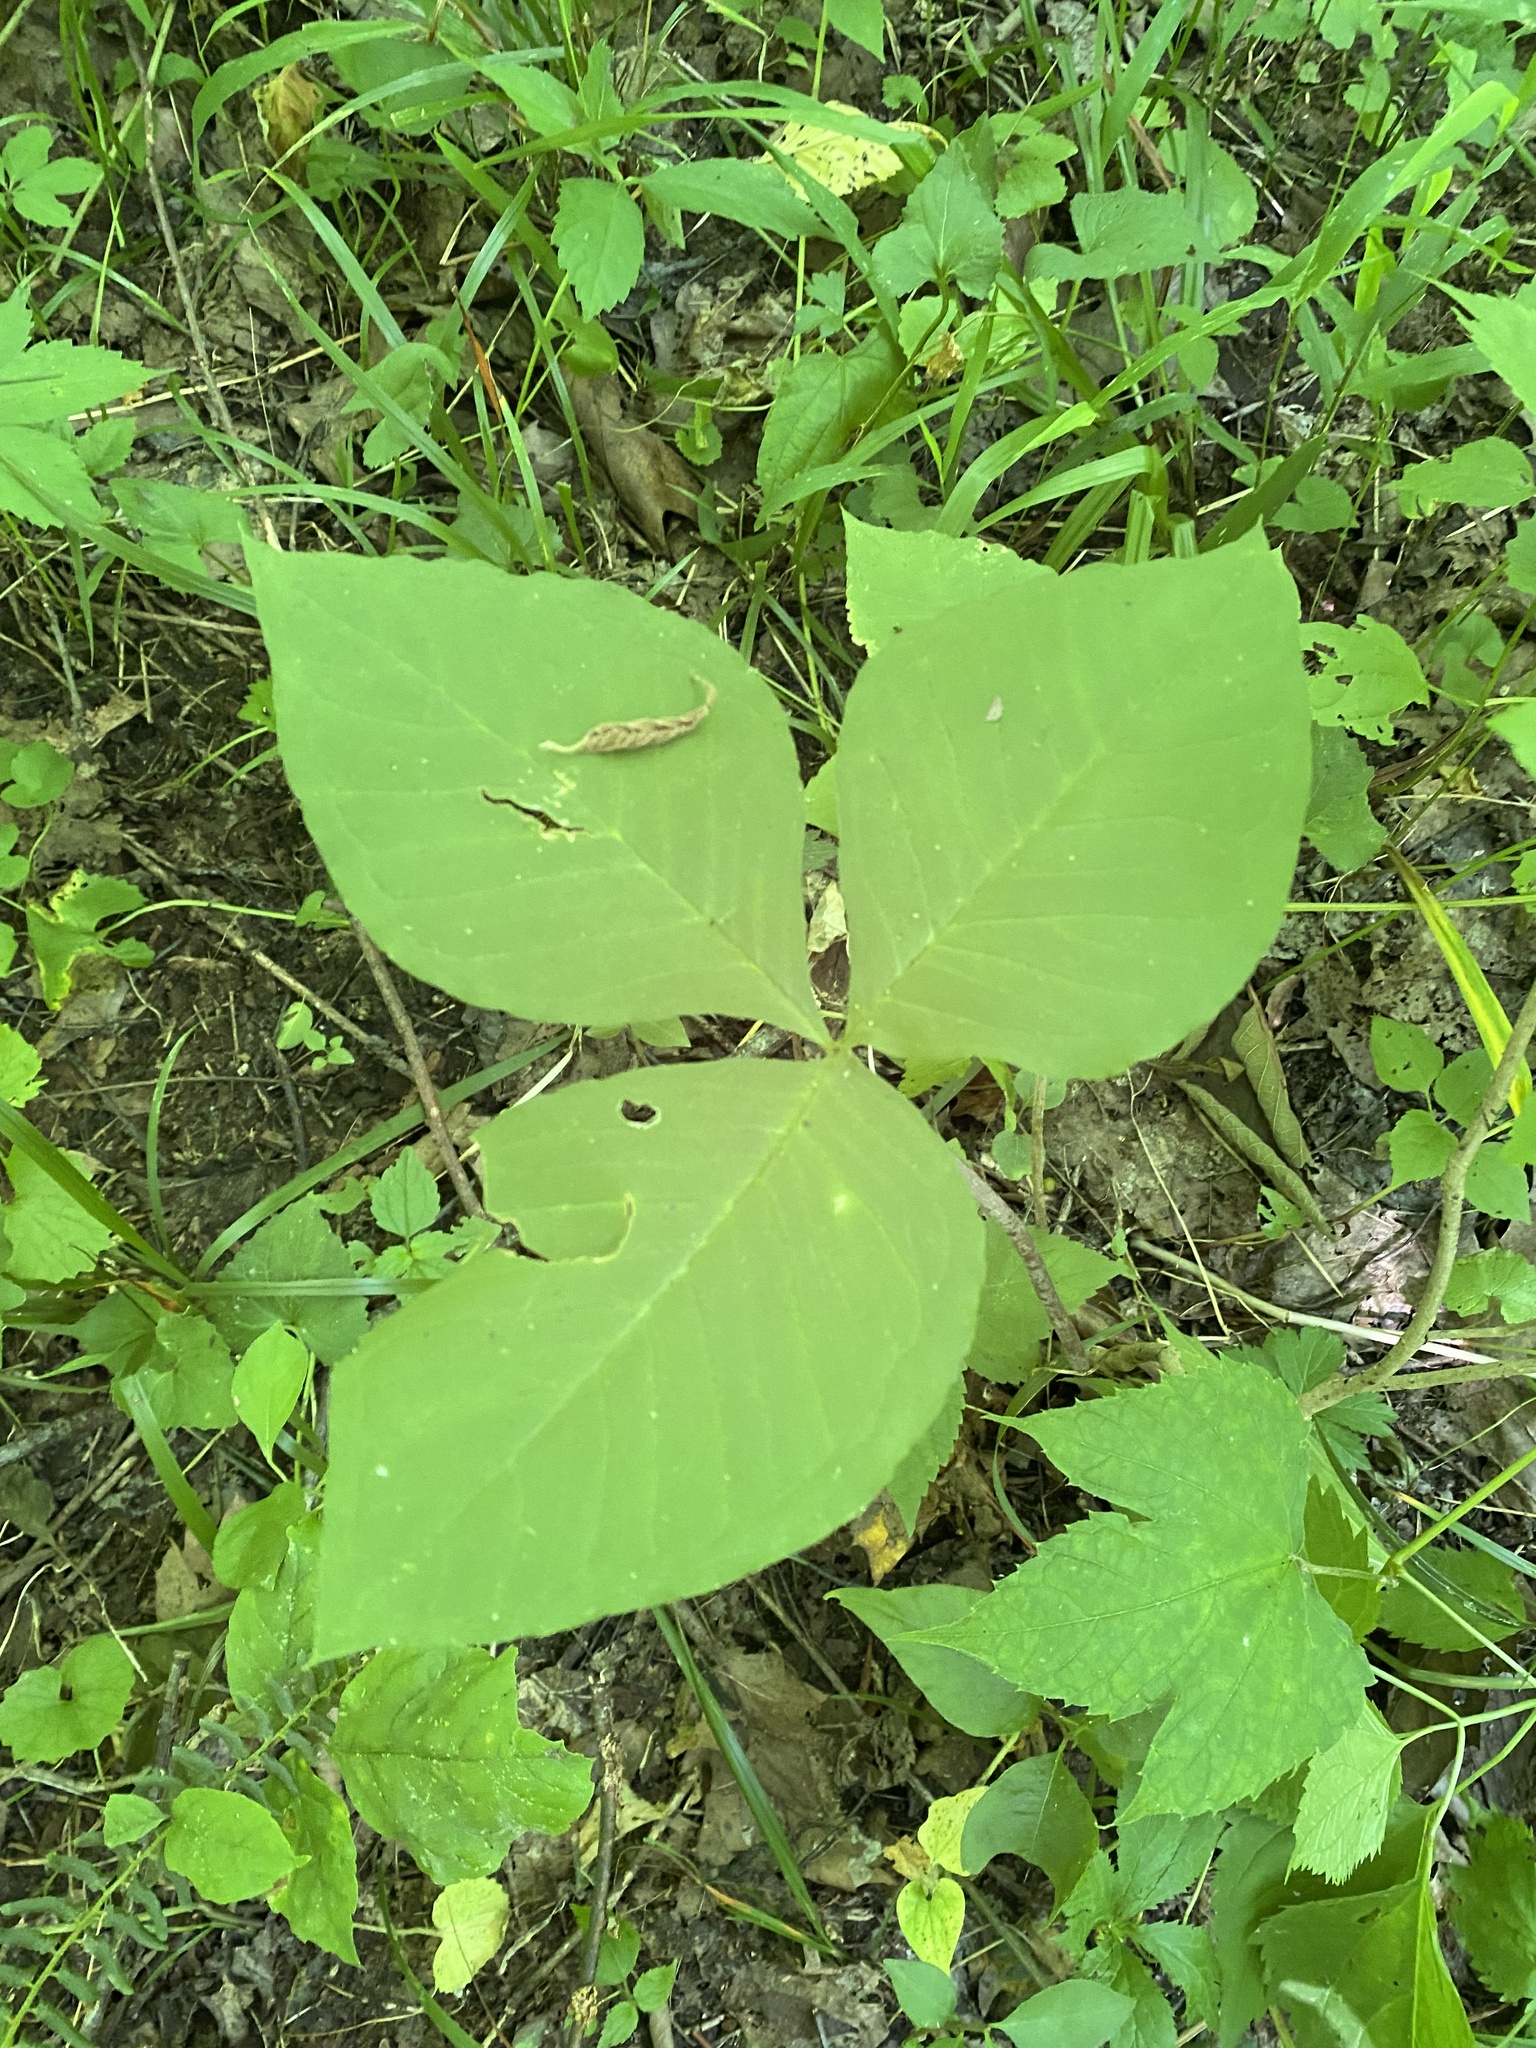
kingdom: Plantae
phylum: Tracheophyta
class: Liliopsida
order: Alismatales
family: Araceae
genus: Arisaema
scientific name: Arisaema triphyllum
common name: Jack-in-the-pulpit
